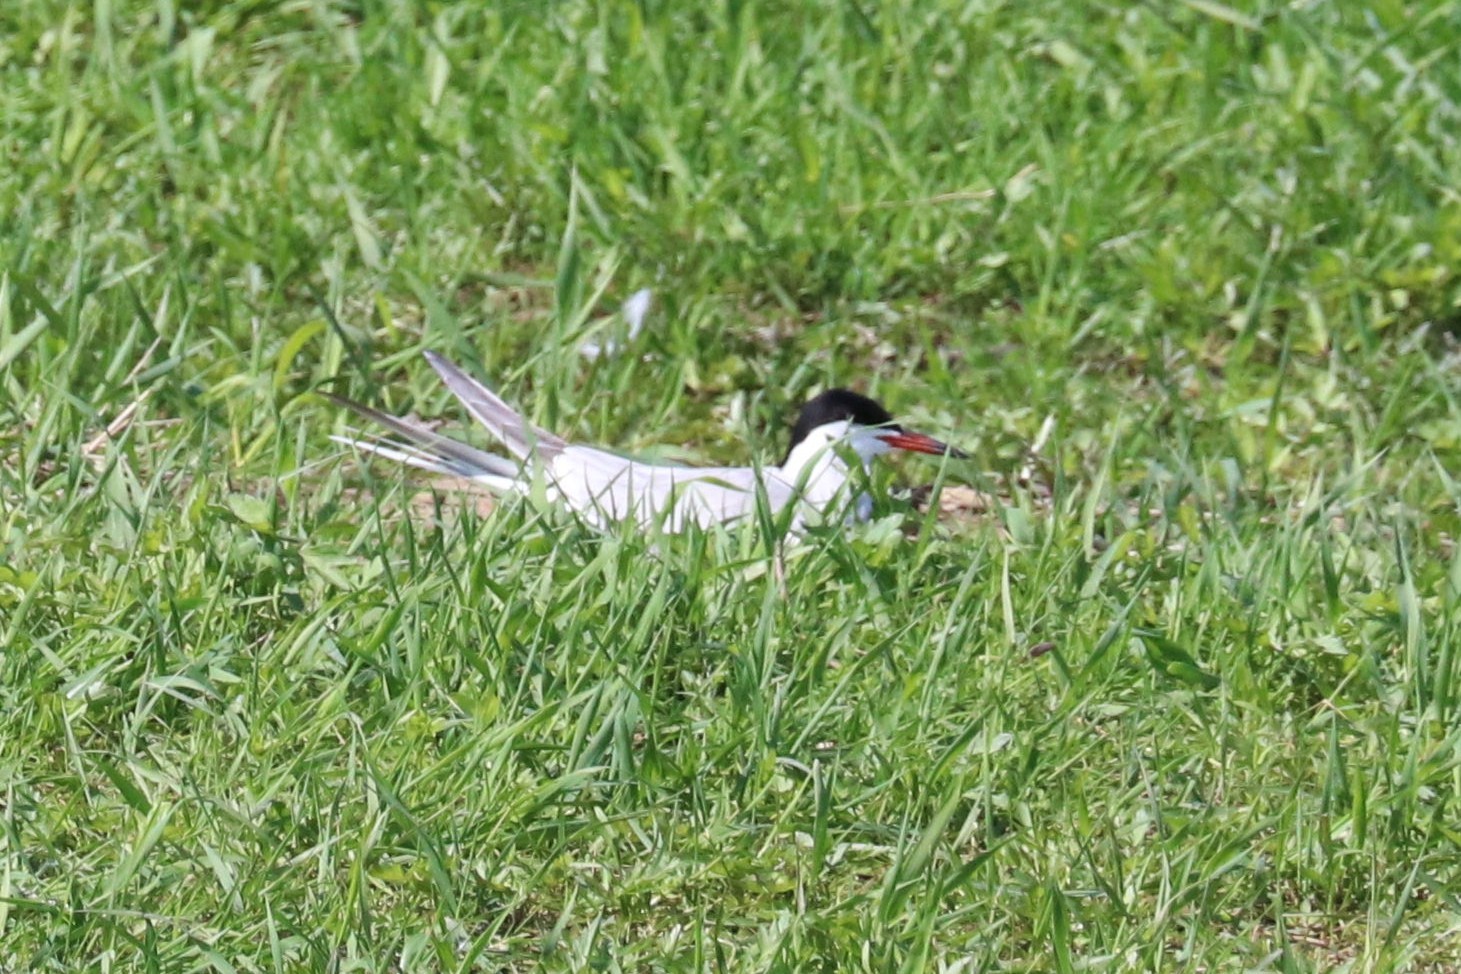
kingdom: Animalia
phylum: Chordata
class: Aves
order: Charadriiformes
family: Laridae
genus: Sterna
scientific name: Sterna hirundo
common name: Common tern
